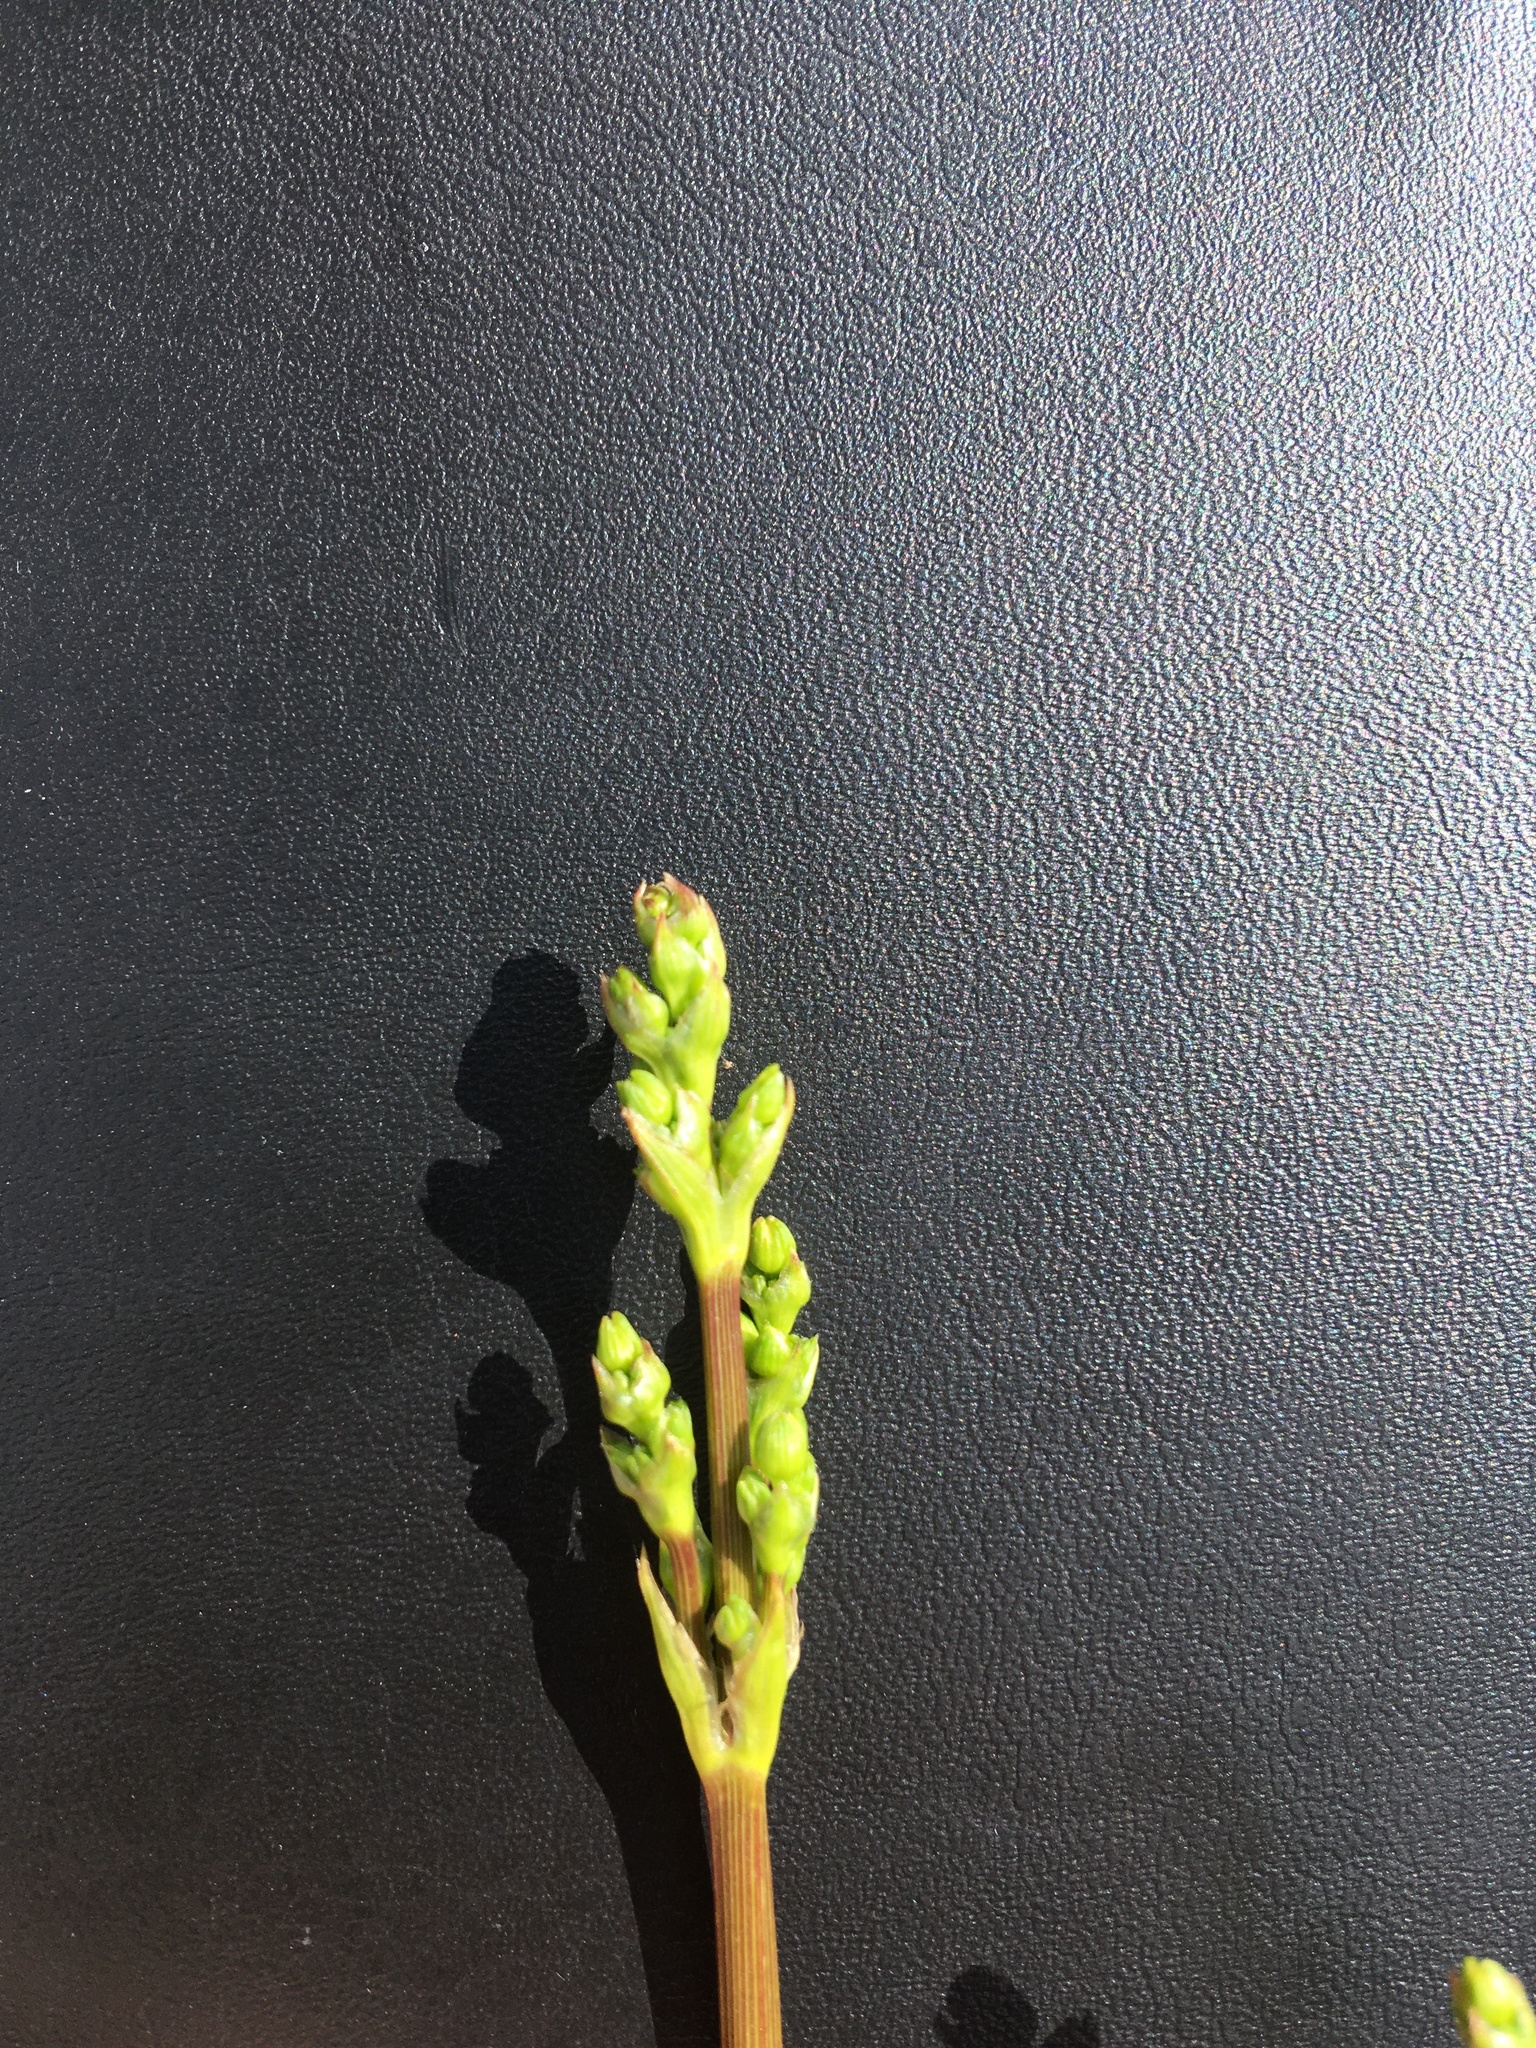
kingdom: Plantae
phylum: Tracheophyta
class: Liliopsida
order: Alismatales
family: Alismataceae
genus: Alisma
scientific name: Alisma plantago-aquatica
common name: Water-plantain
